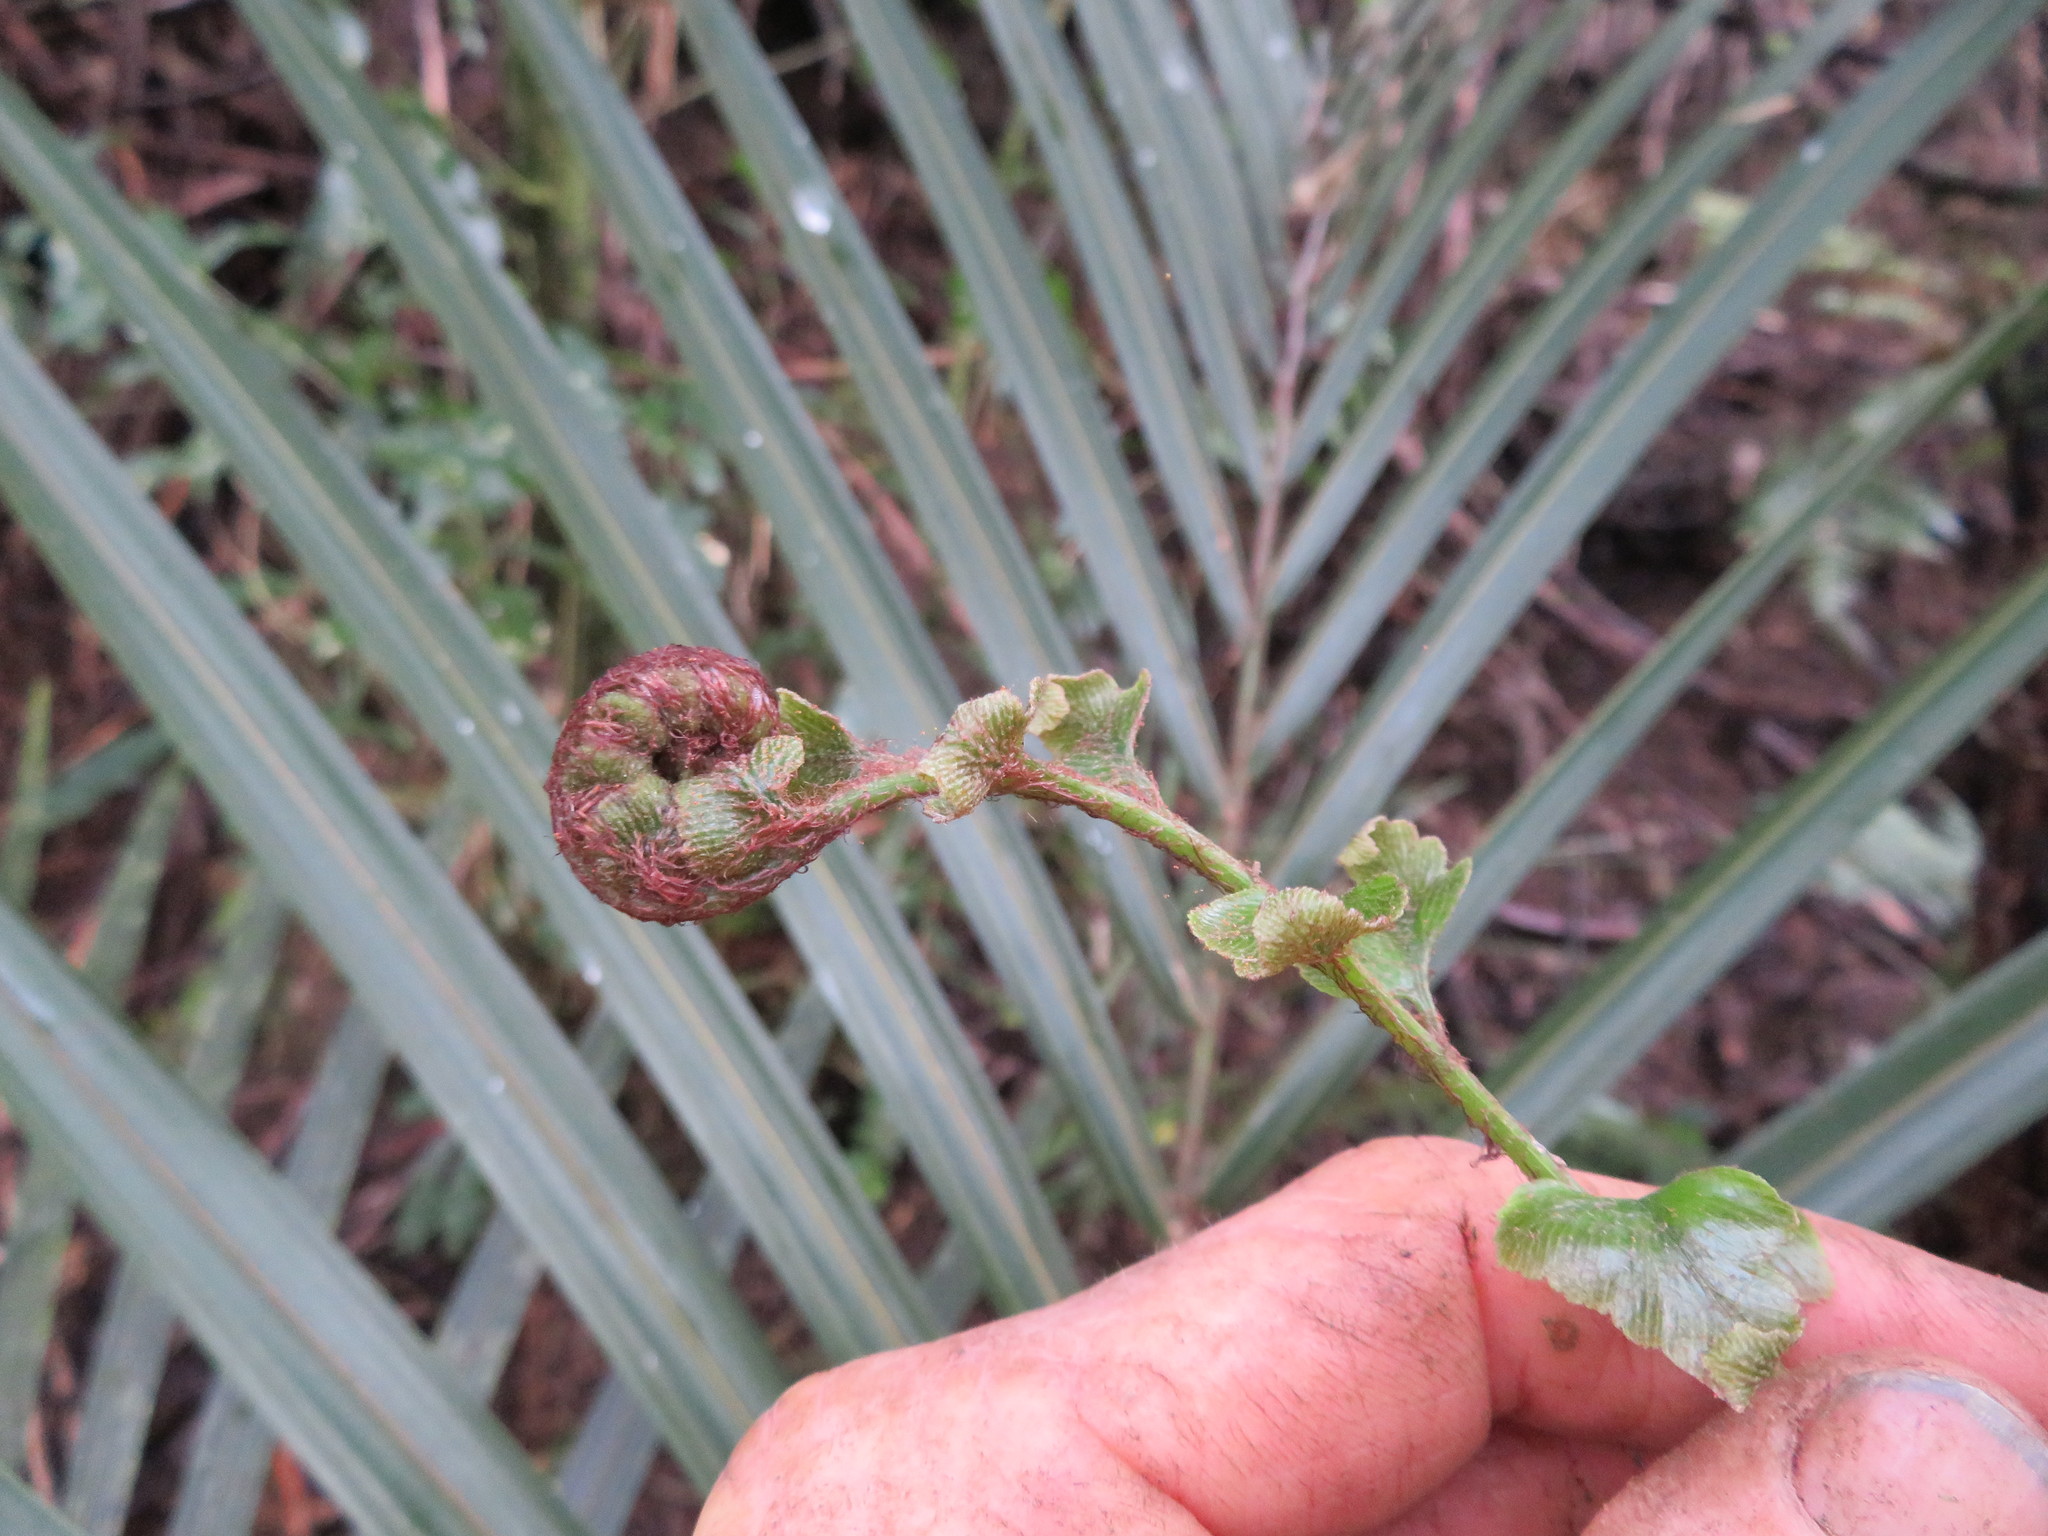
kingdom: Plantae
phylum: Tracheophyta
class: Polypodiopsida
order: Polypodiales
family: Aspleniaceae
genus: Asplenium
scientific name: Asplenium polyodon
